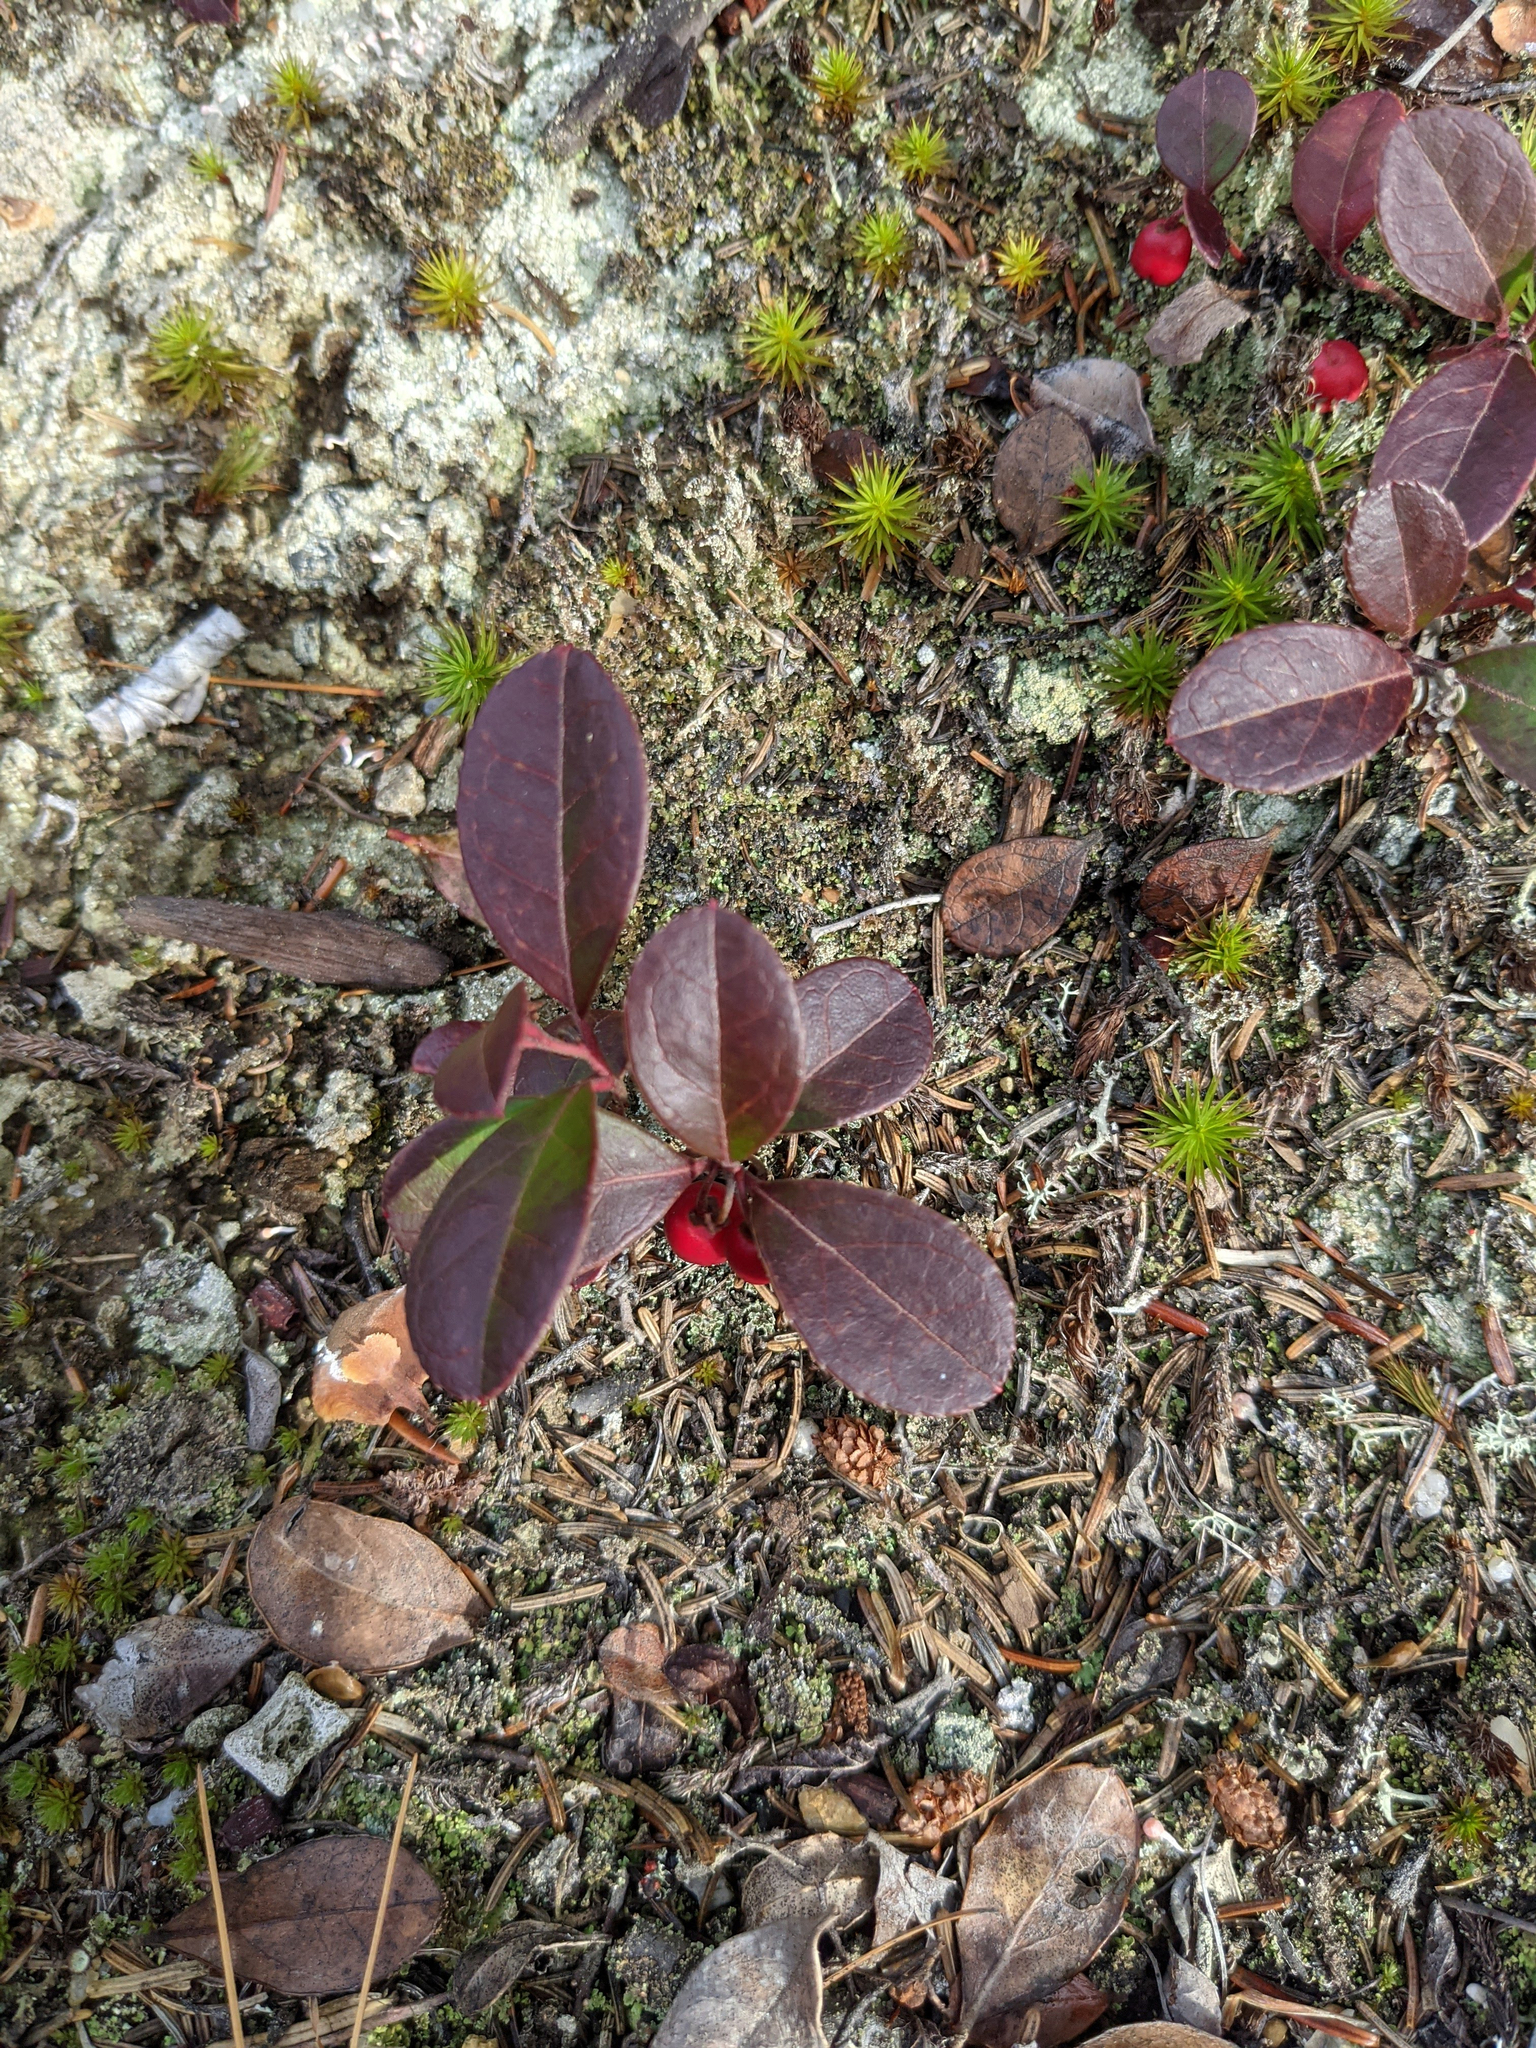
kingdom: Plantae
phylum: Tracheophyta
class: Magnoliopsida
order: Ericales
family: Ericaceae
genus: Gaultheria
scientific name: Gaultheria procumbens
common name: Checkerberry
